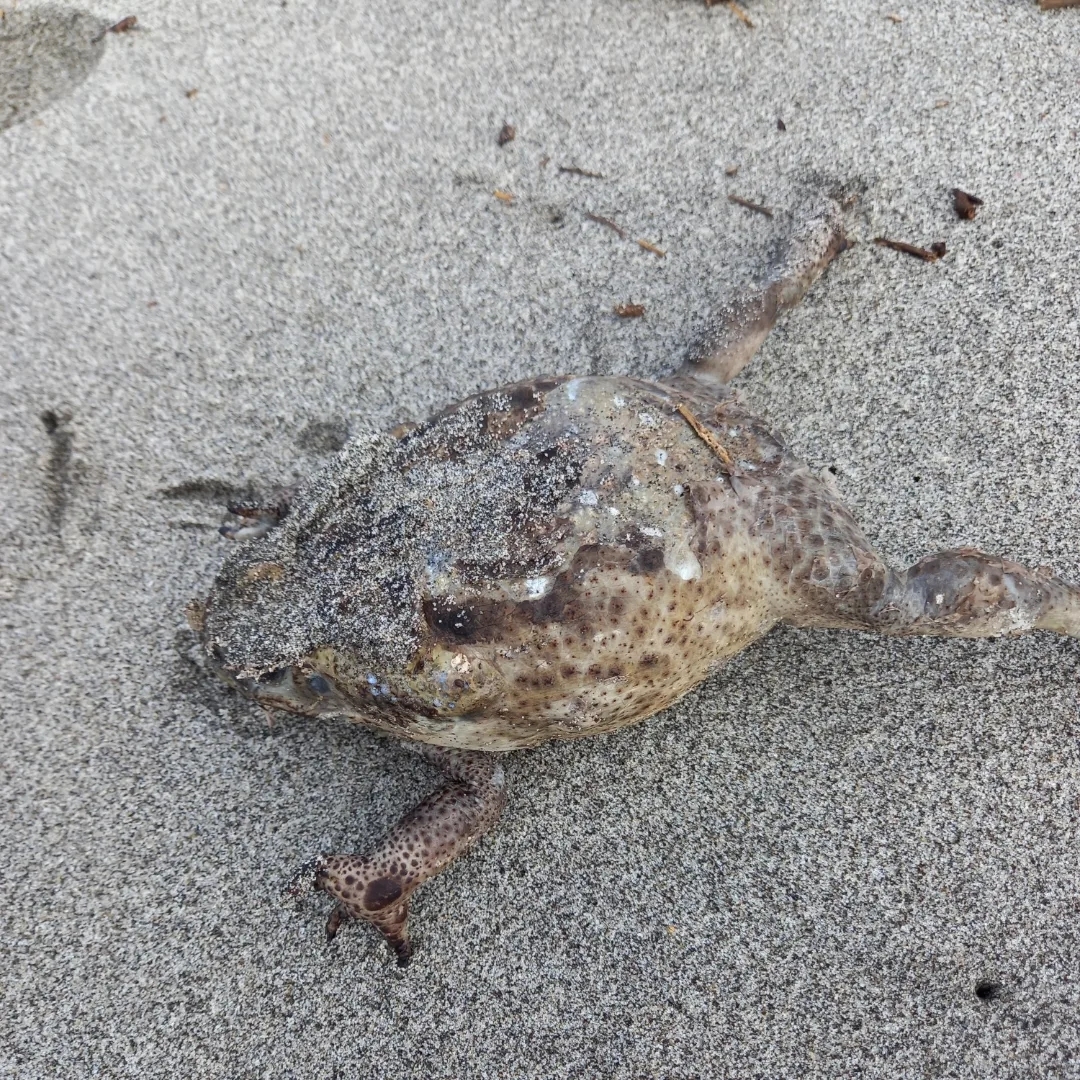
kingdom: Animalia
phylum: Chordata
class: Amphibia
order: Anura
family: Bufonidae
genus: Rhinella
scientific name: Rhinella horribilis
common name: Mesoamerican cane toad
